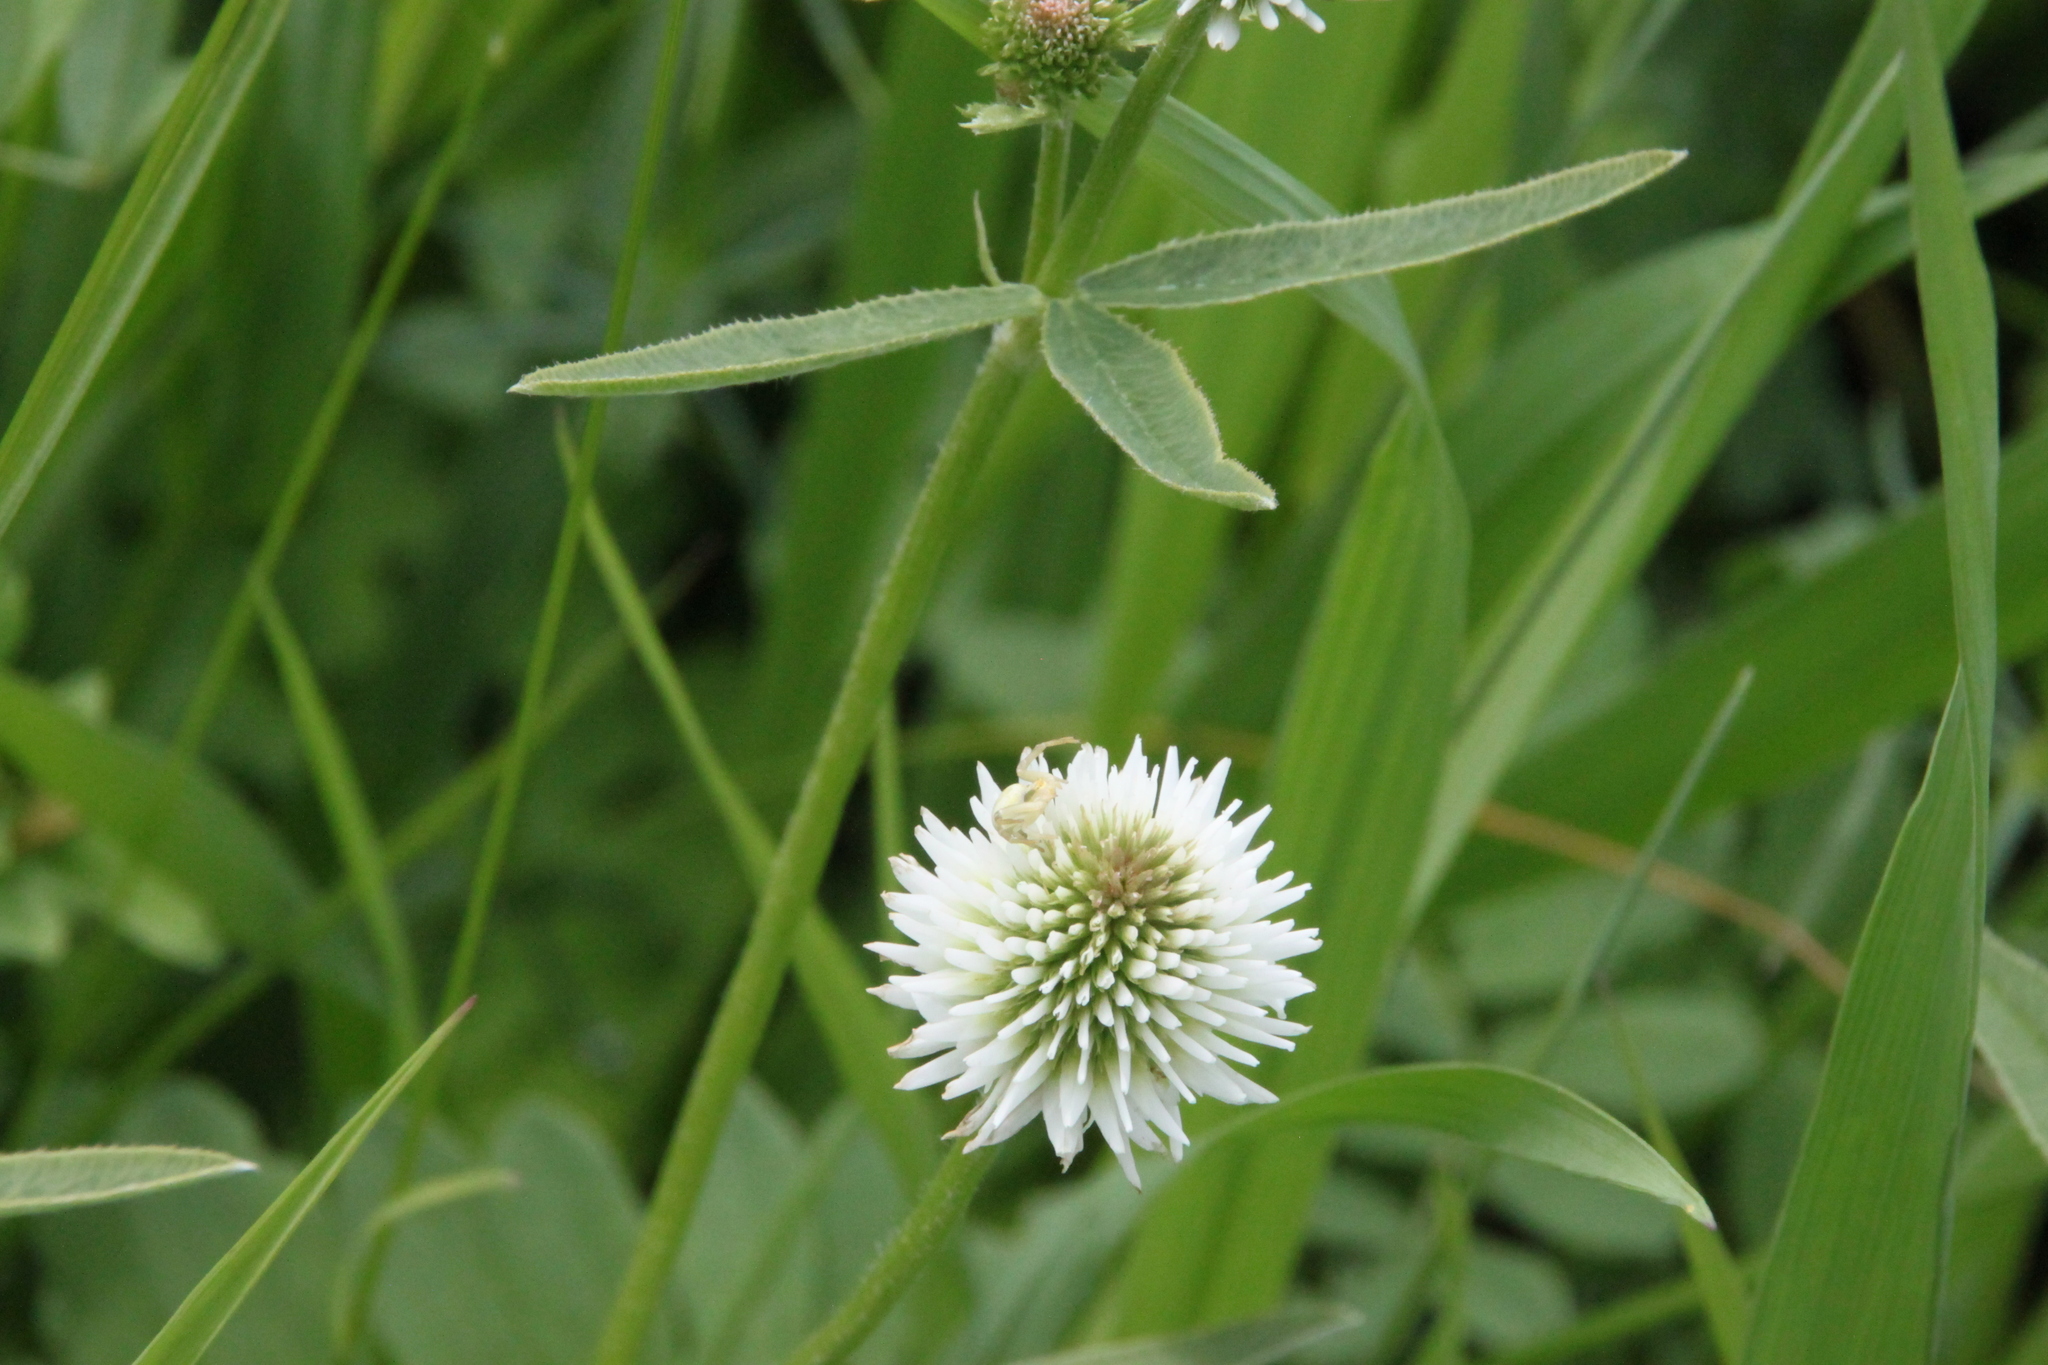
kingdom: Plantae
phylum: Tracheophyta
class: Magnoliopsida
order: Fabales
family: Fabaceae
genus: Trifolium
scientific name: Trifolium montanum
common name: Mountain clover
